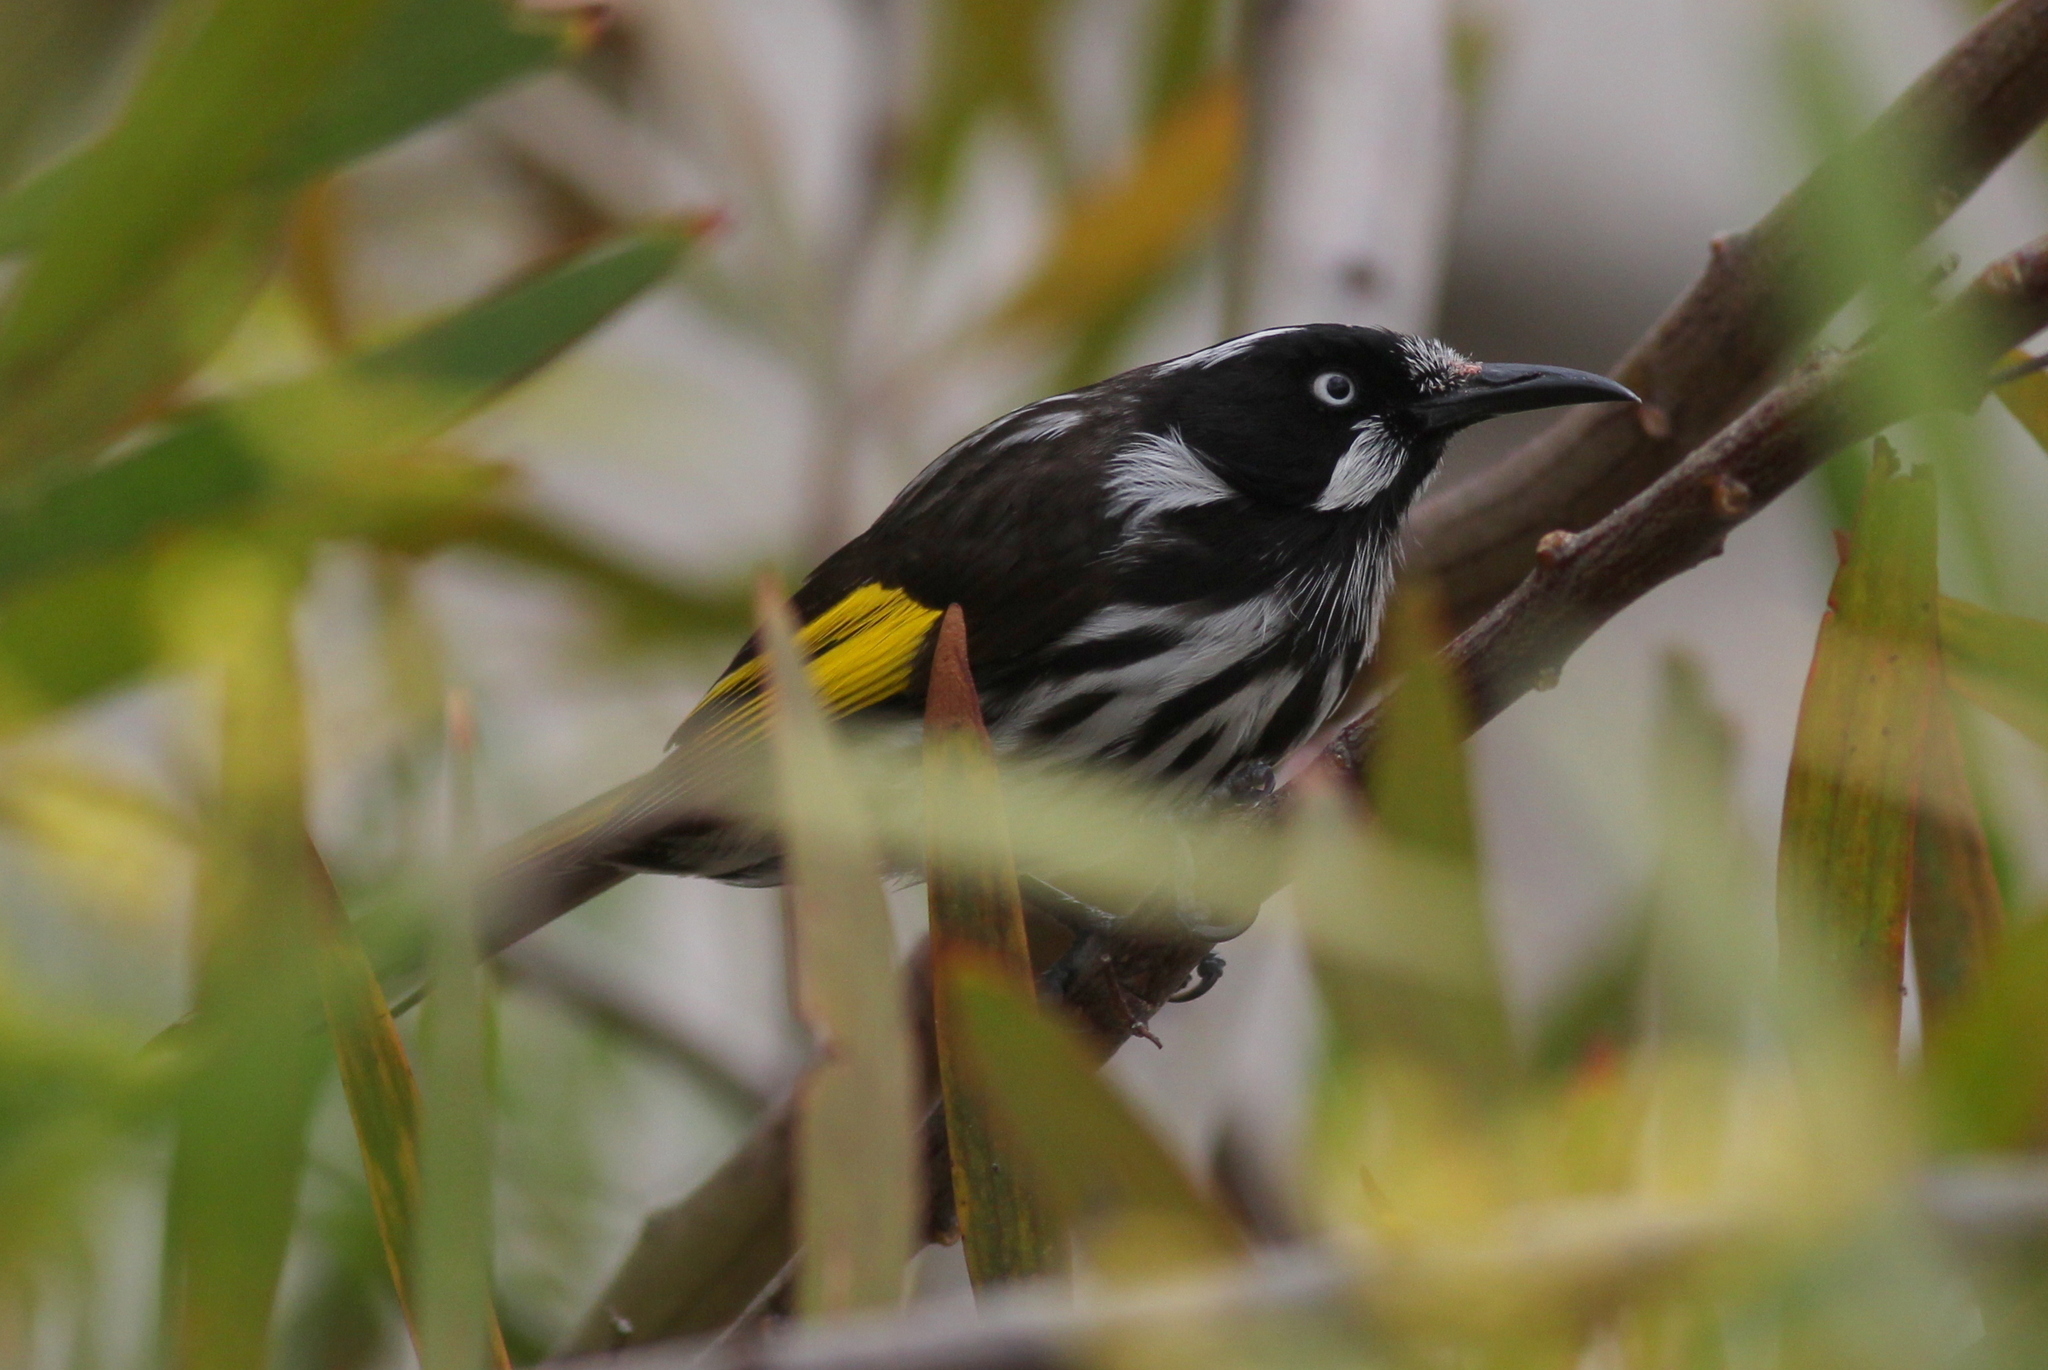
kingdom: Animalia
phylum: Chordata
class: Aves
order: Passeriformes
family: Meliphagidae
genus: Phylidonyris
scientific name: Phylidonyris novaehollandiae
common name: New holland honeyeater
